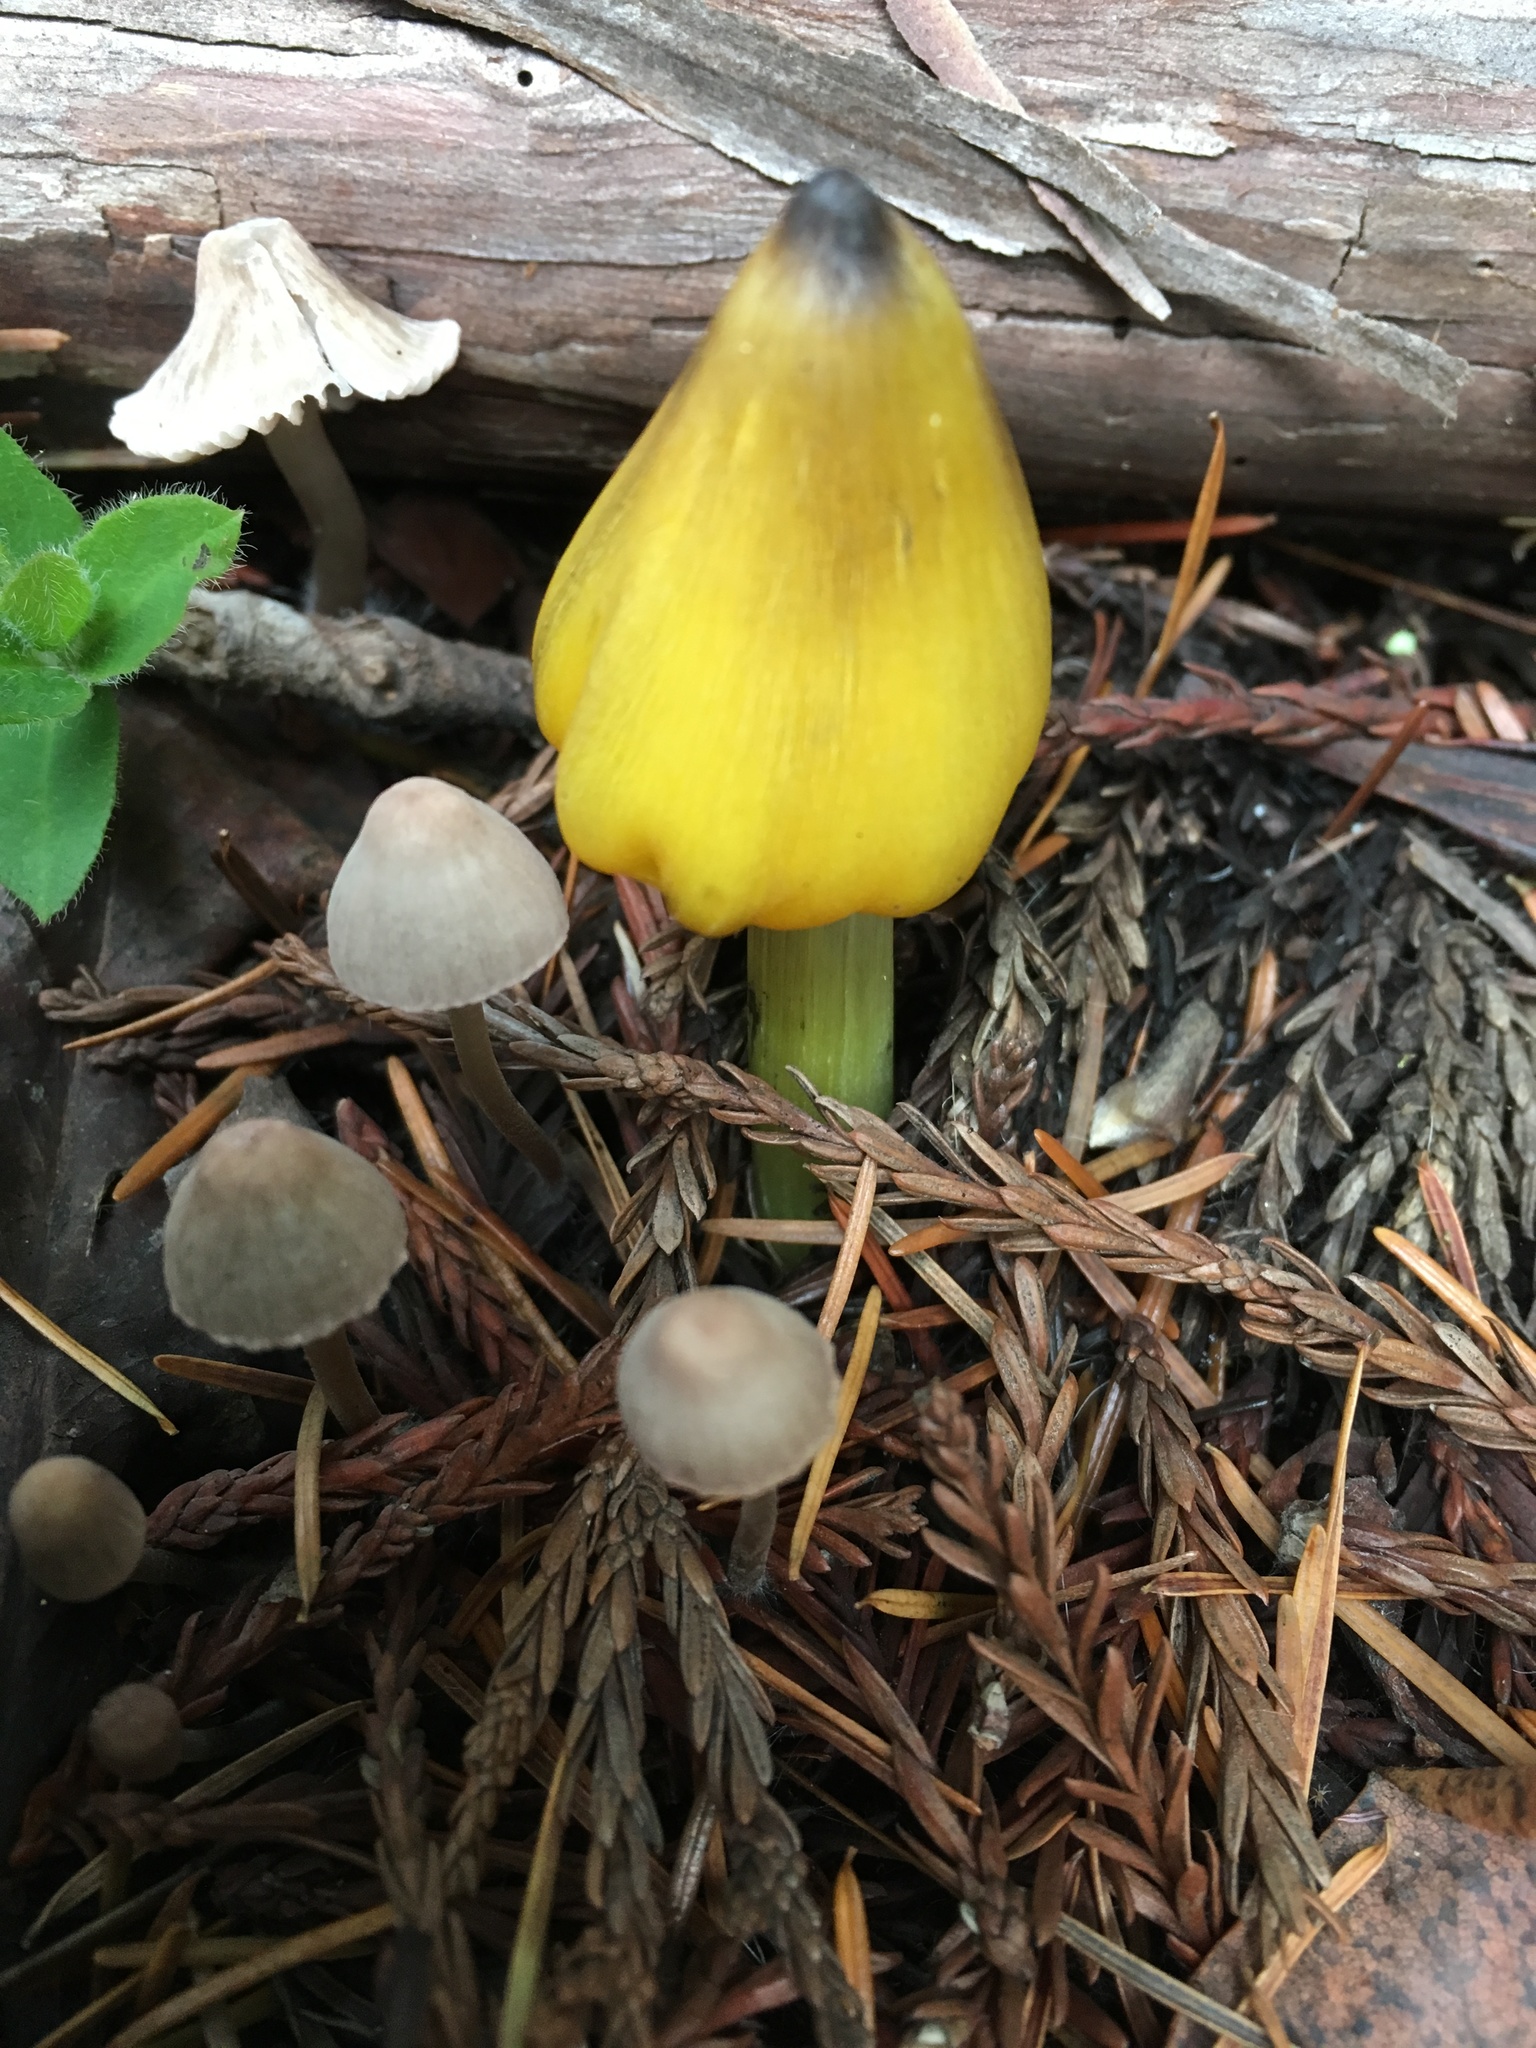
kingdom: Fungi
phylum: Basidiomycota
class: Agaricomycetes
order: Agaricales
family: Hygrophoraceae
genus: Hygrocybe
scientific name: Hygrocybe singeri
